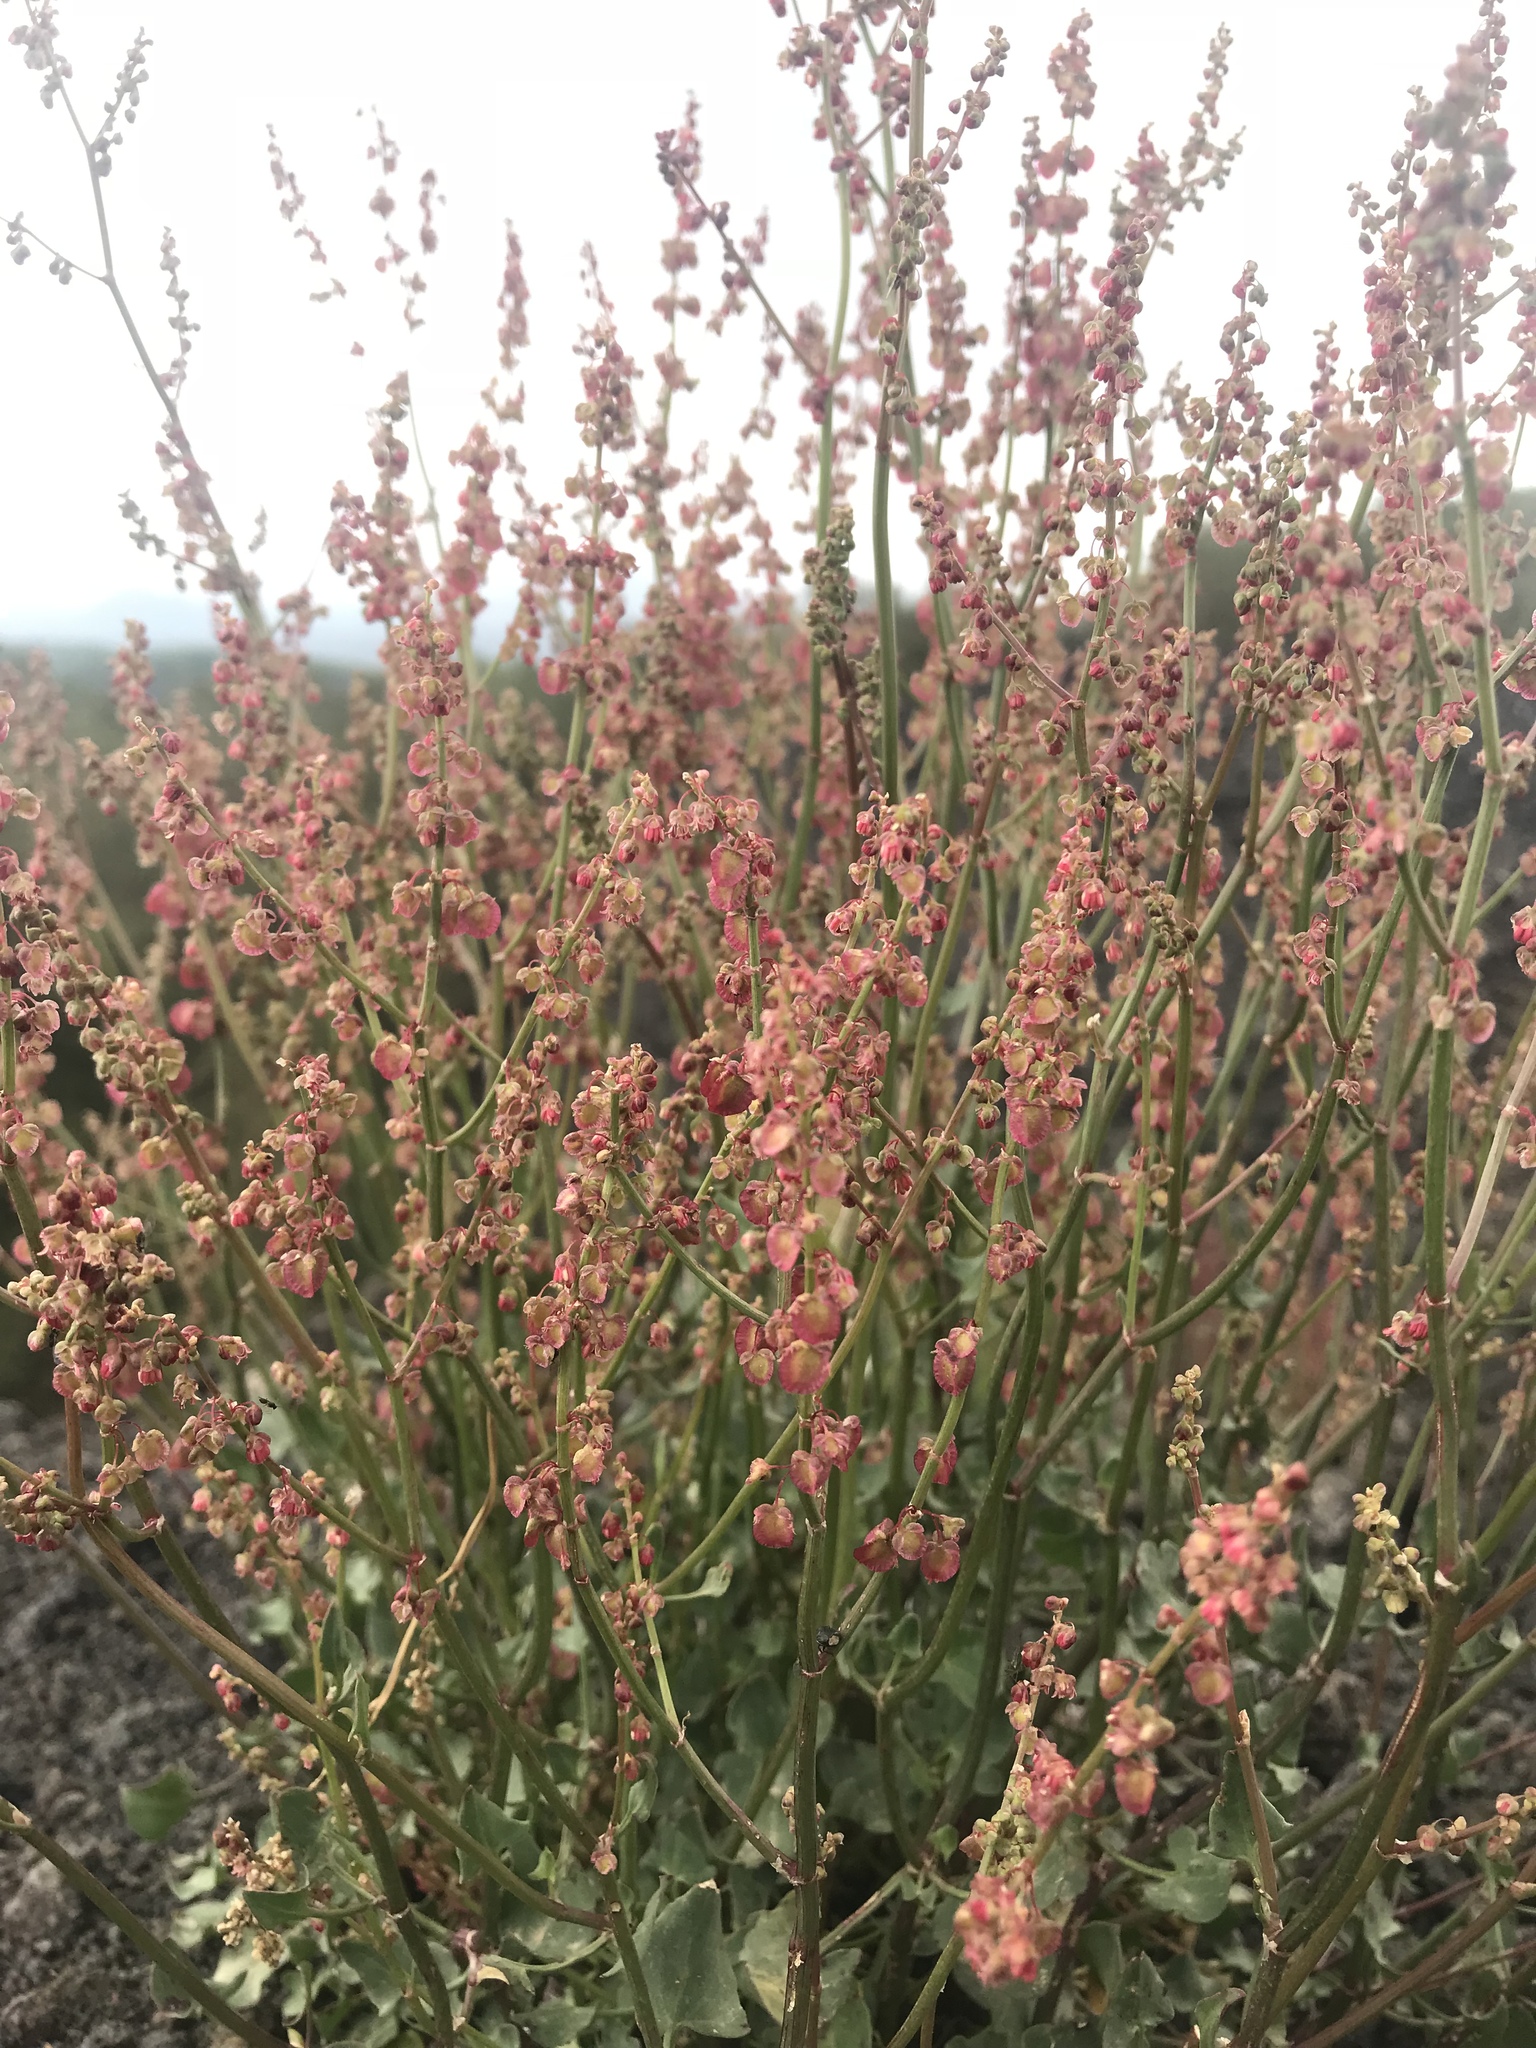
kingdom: Plantae
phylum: Tracheophyta
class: Magnoliopsida
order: Caryophyllales
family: Polygonaceae
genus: Rumex
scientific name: Rumex scutatus
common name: French sorrel
